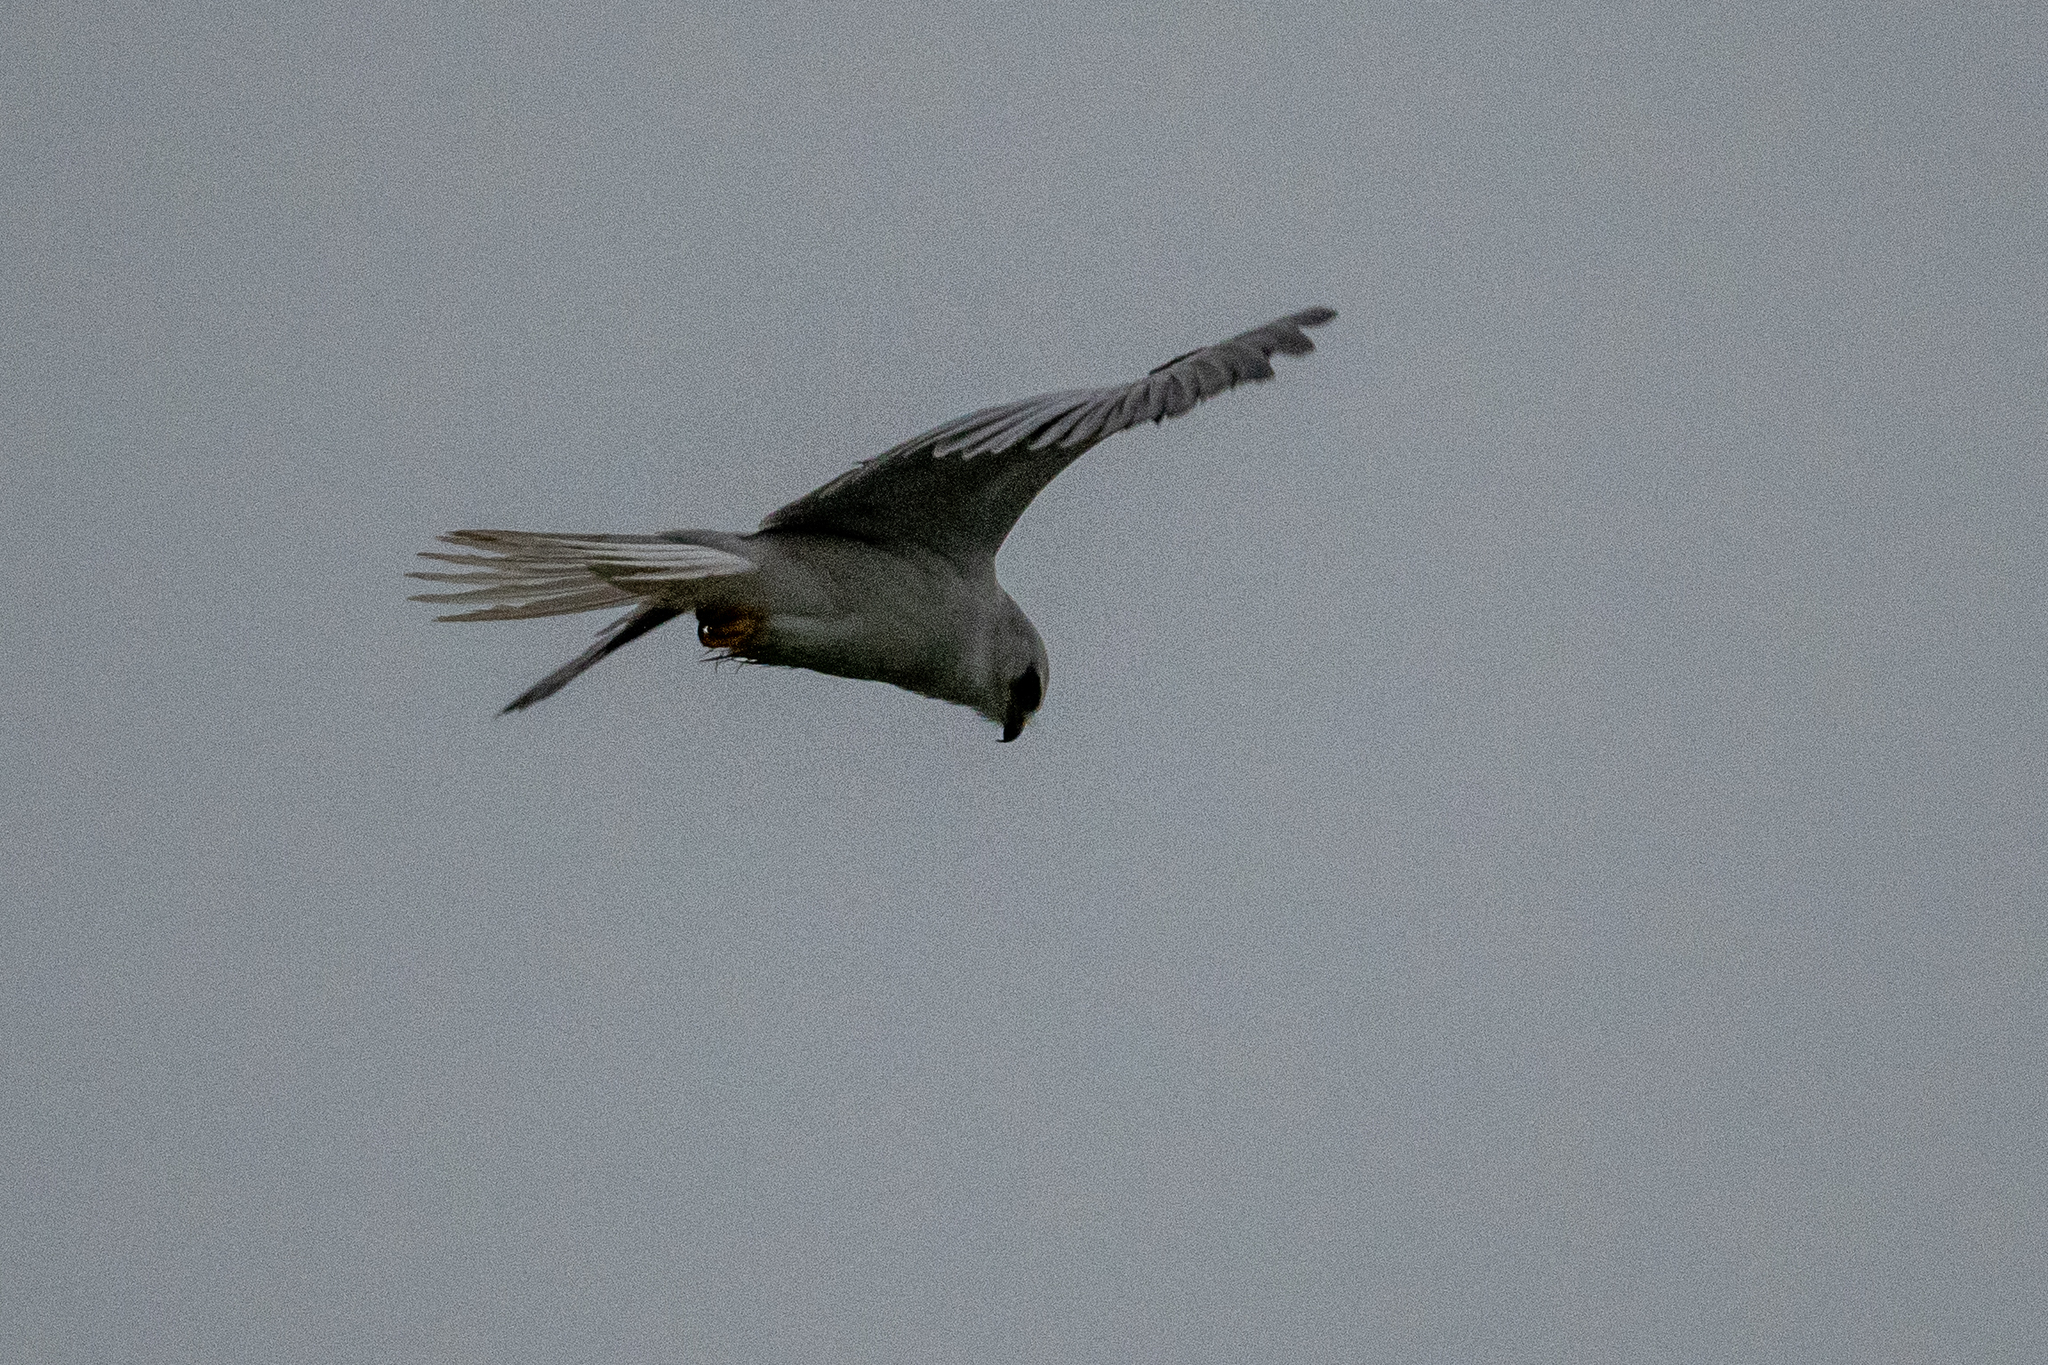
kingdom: Animalia
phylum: Chordata
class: Aves
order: Accipitriformes
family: Accipitridae
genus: Elanus
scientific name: Elanus leucurus
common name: White-tailed kite
